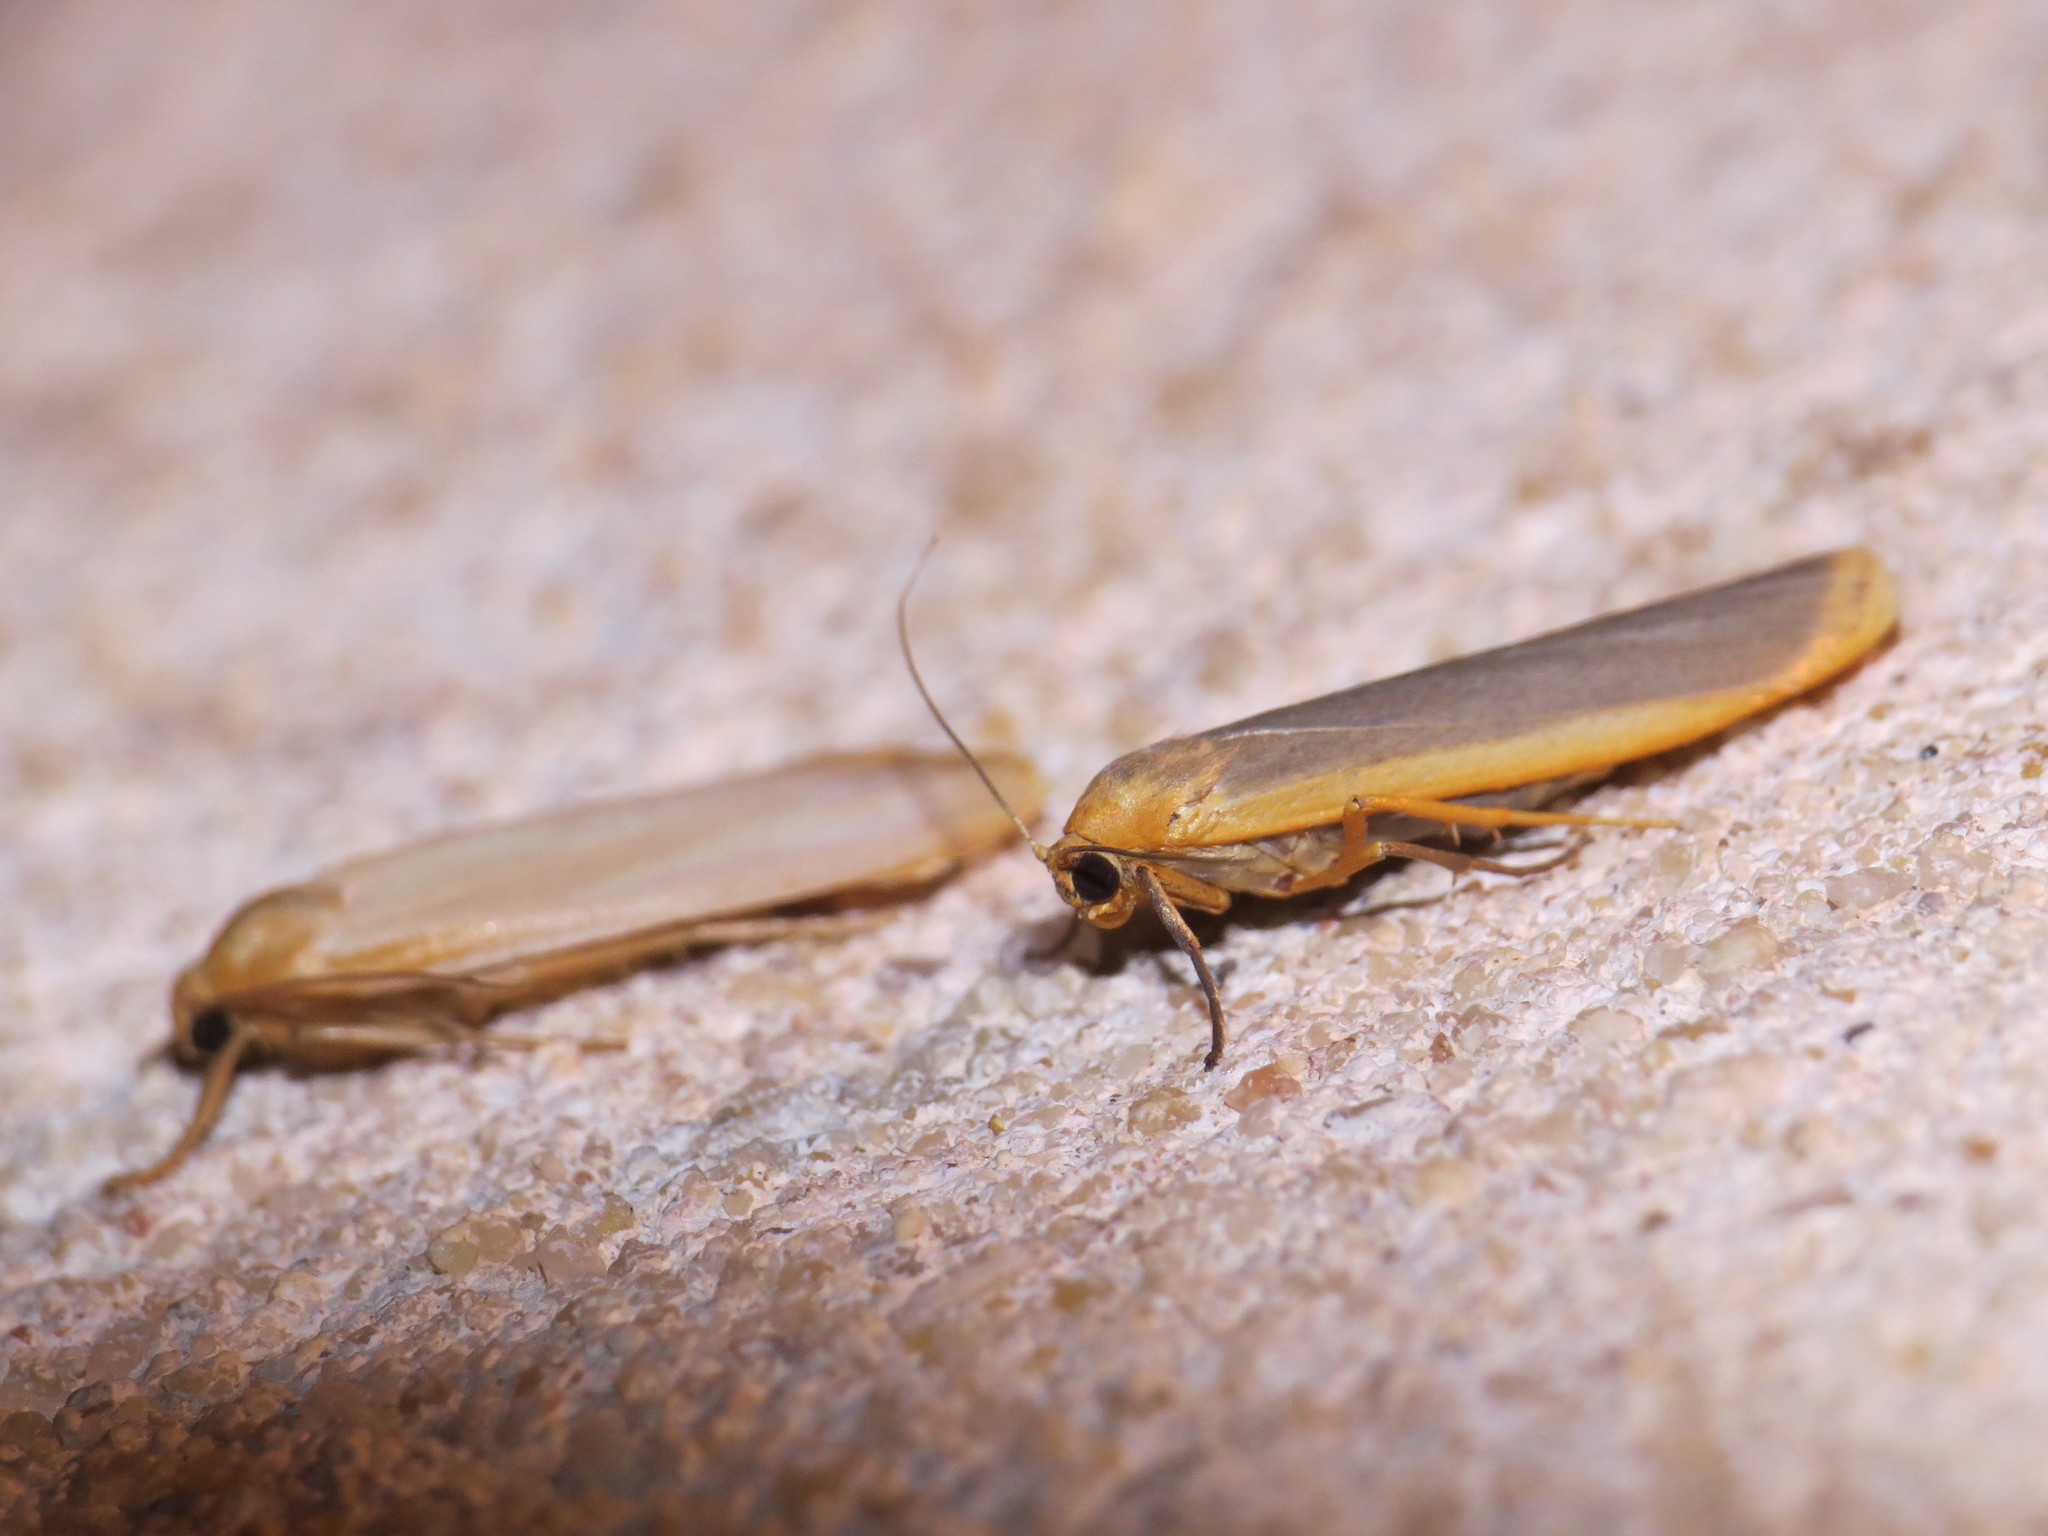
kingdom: Animalia
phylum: Arthropoda
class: Insecta
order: Lepidoptera
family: Erebidae
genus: Manulea
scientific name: Manulea complana
